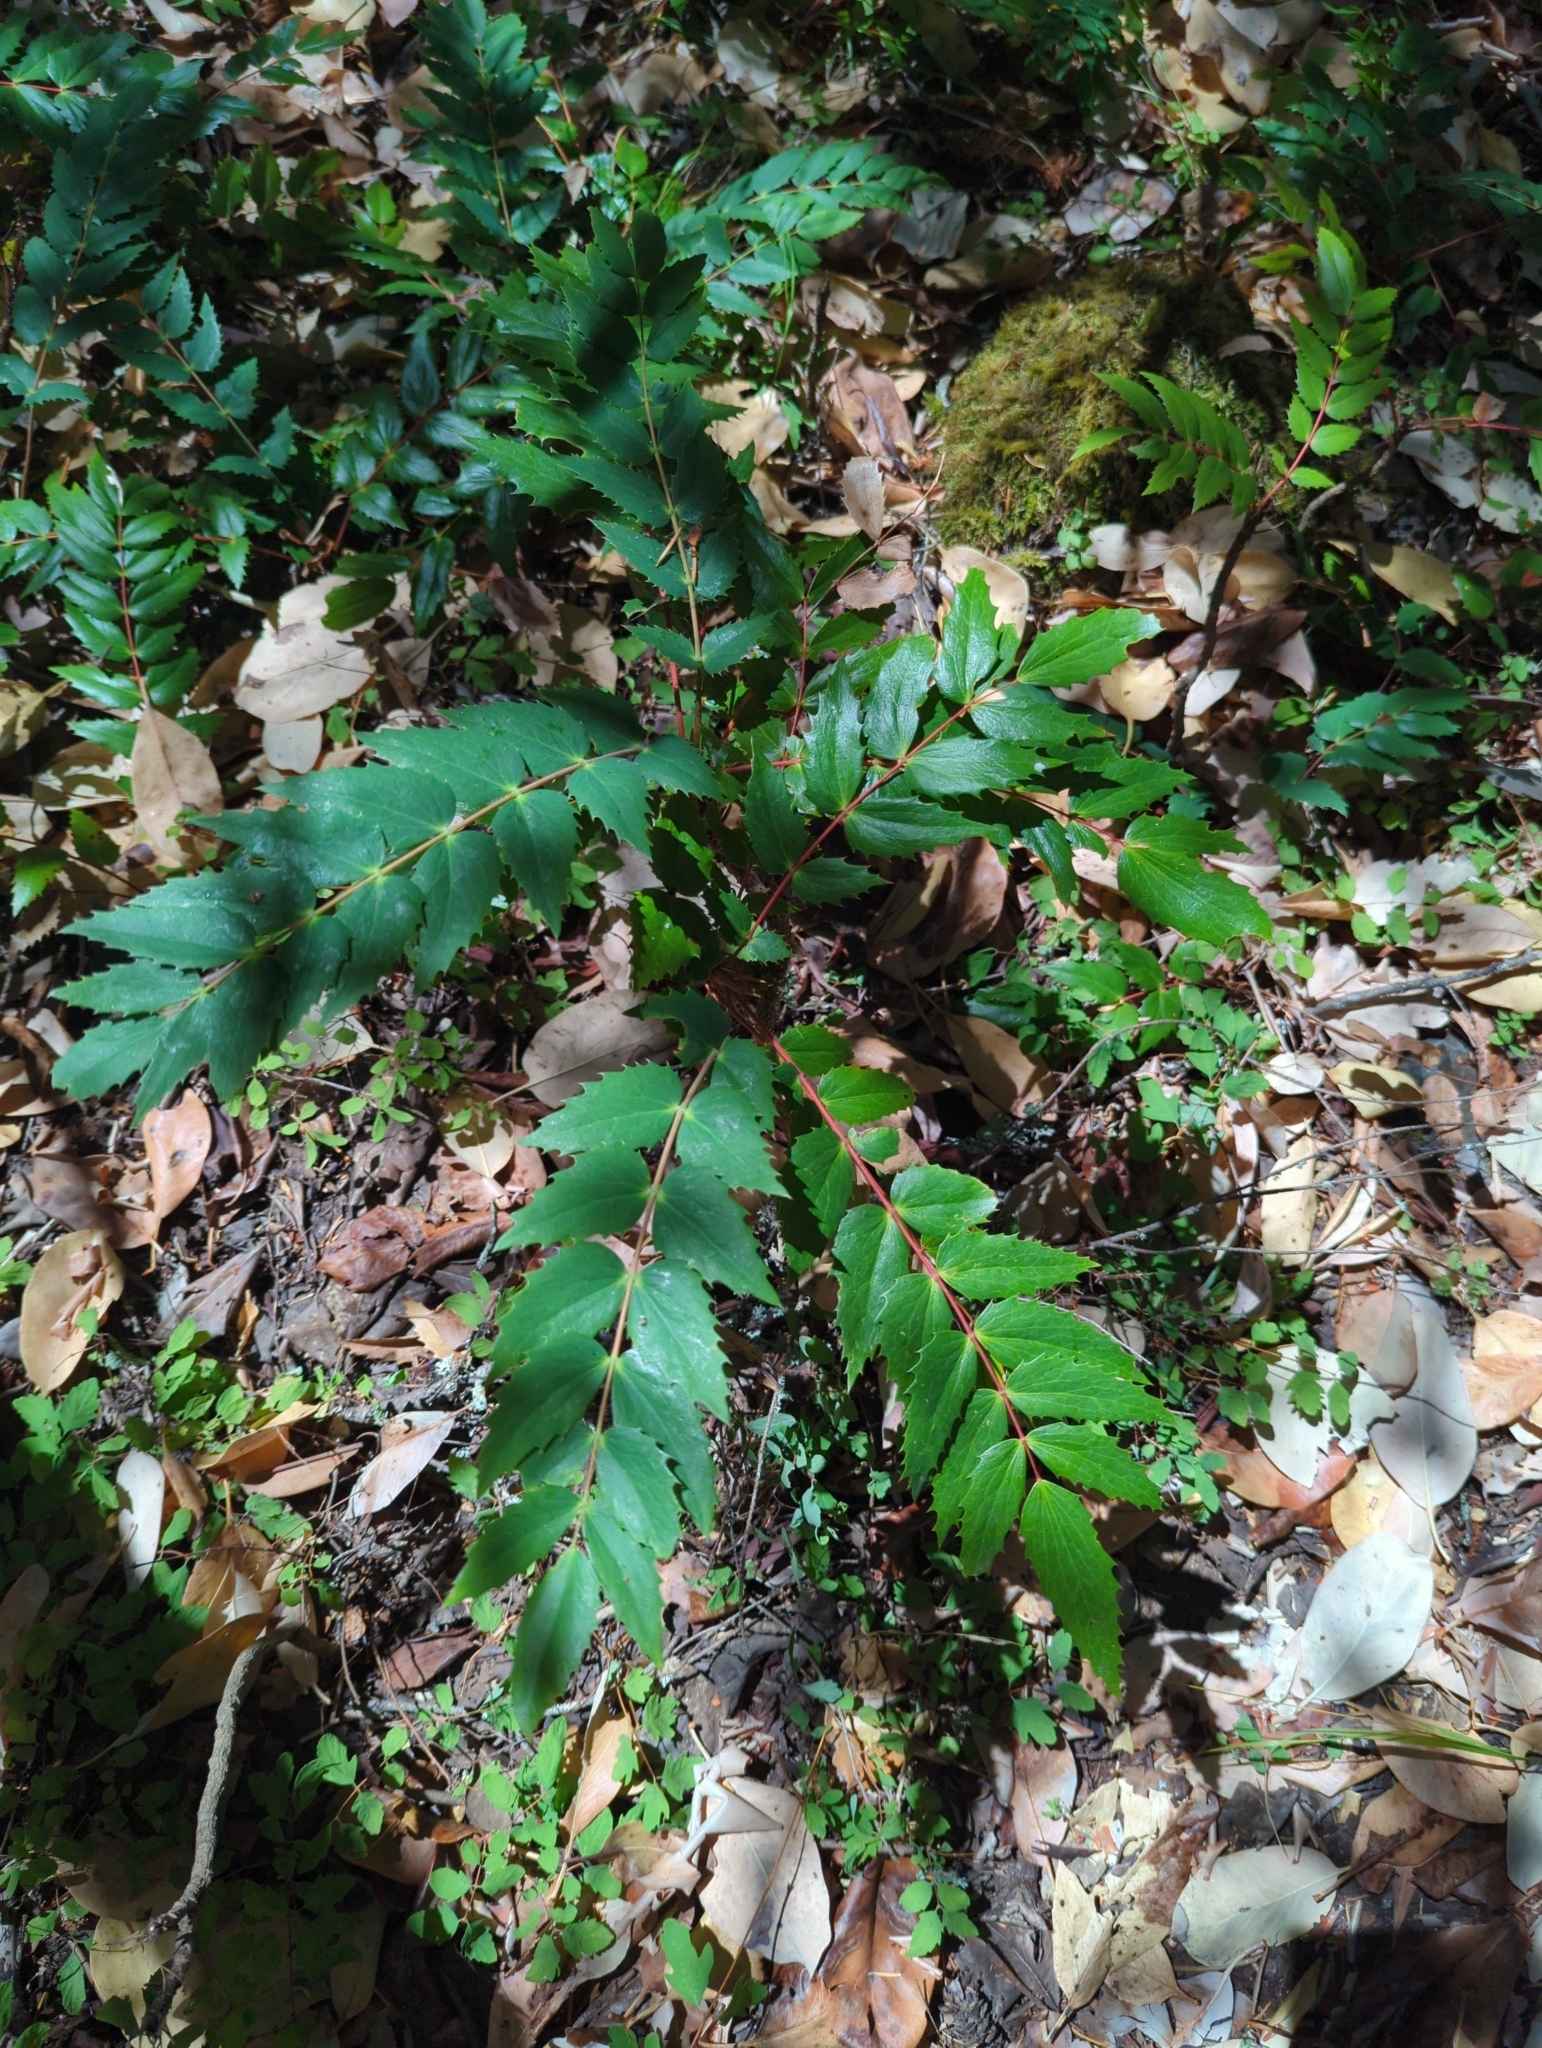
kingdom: Plantae
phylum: Tracheophyta
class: Magnoliopsida
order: Ranunculales
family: Berberidaceae
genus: Mahonia
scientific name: Mahonia nervosa
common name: Cascade oregon-grape
